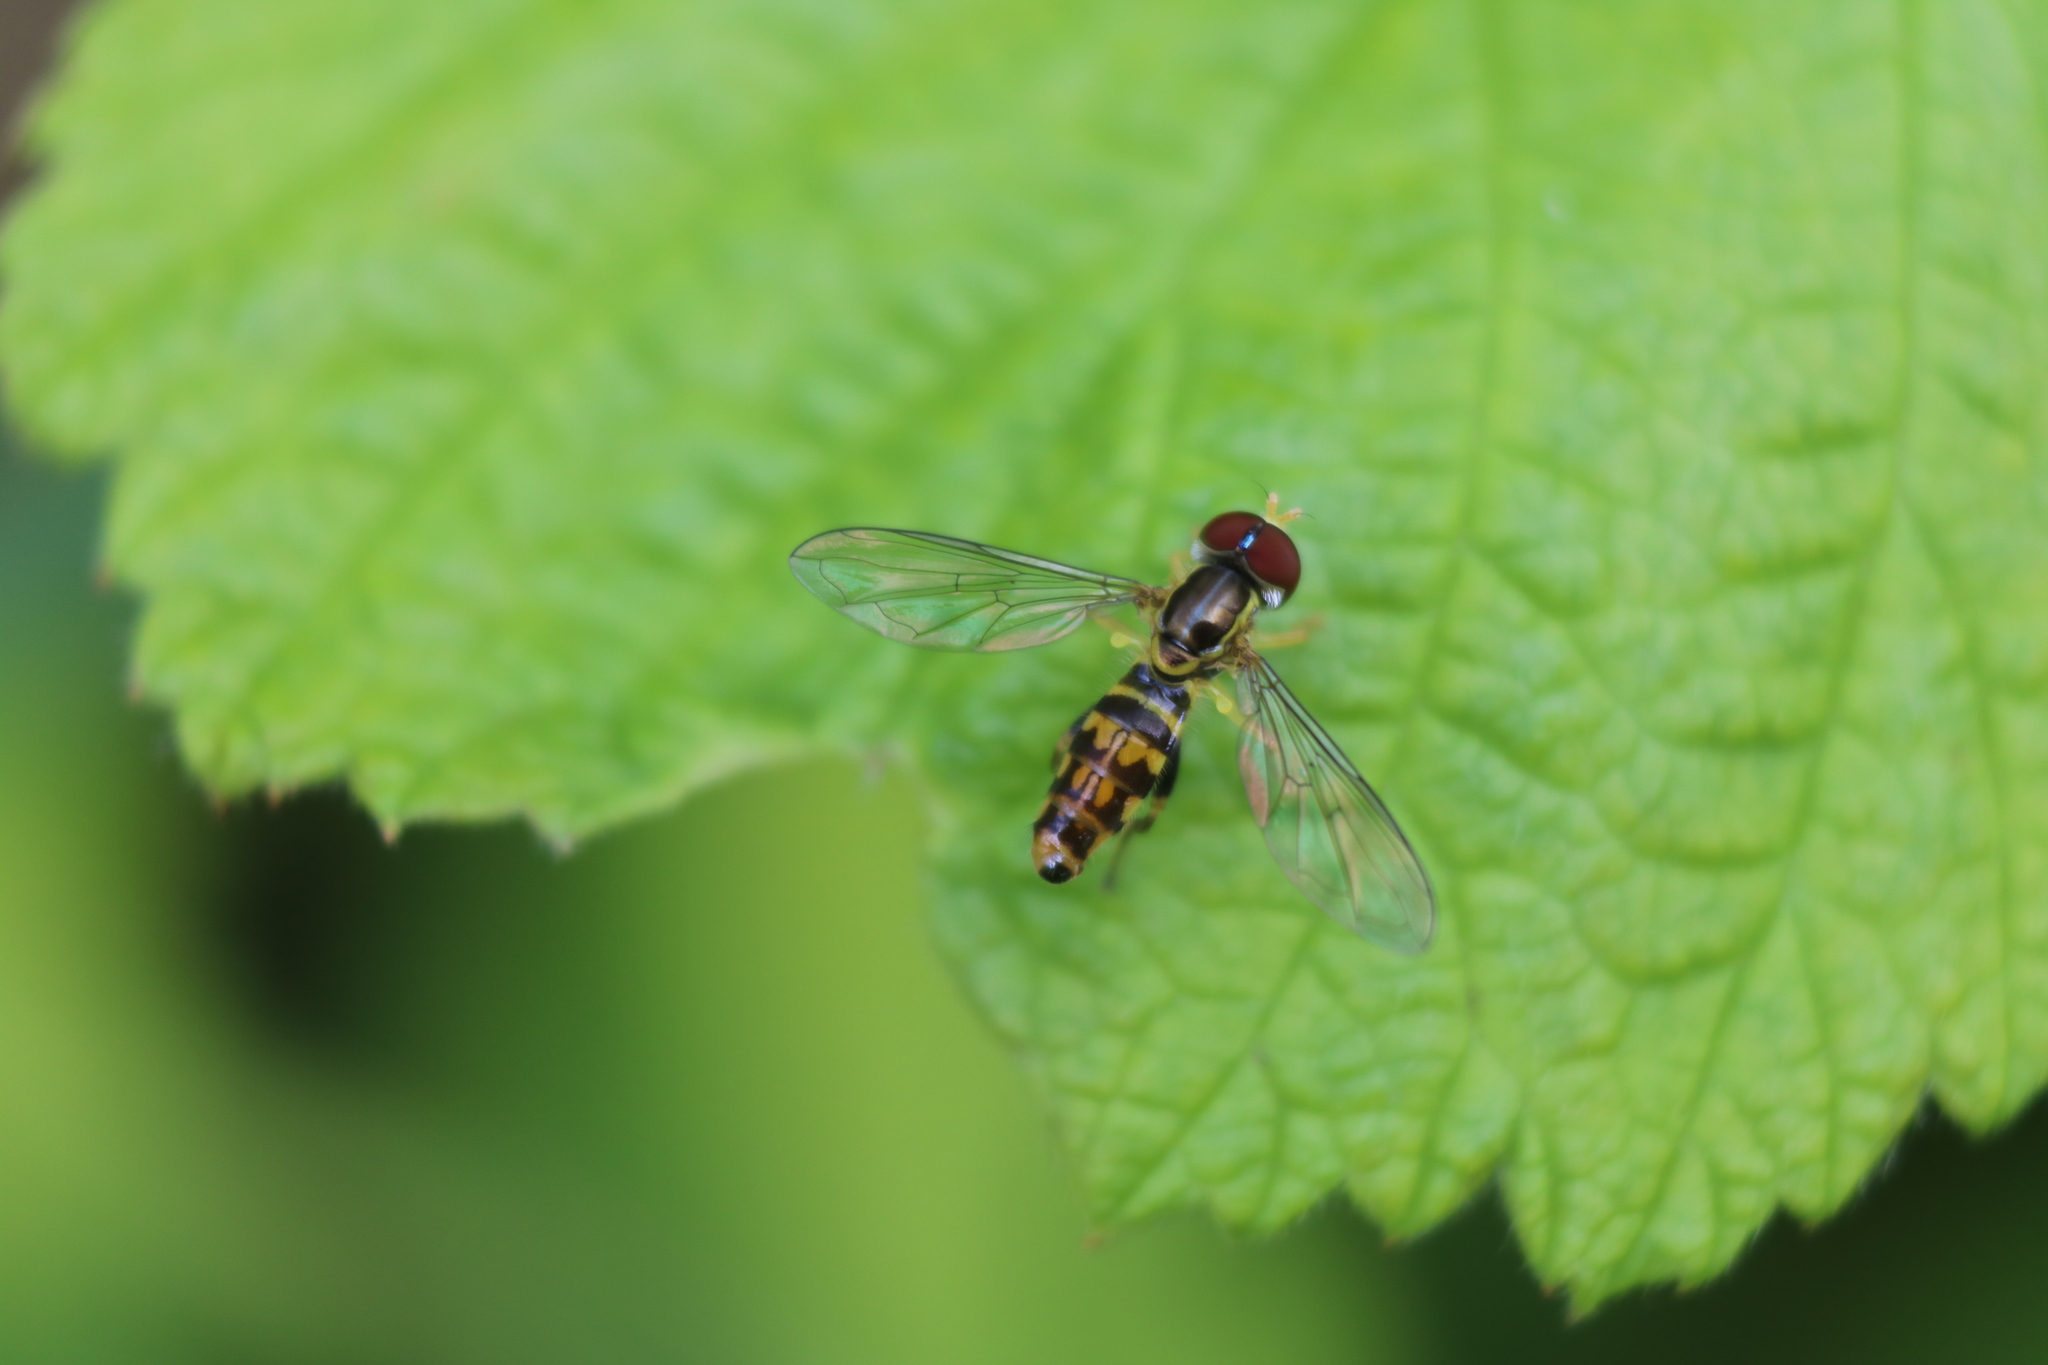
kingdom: Animalia
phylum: Arthropoda
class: Insecta
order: Diptera
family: Syrphidae
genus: Toxomerus
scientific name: Toxomerus geminatus
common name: Eastern calligrapher
